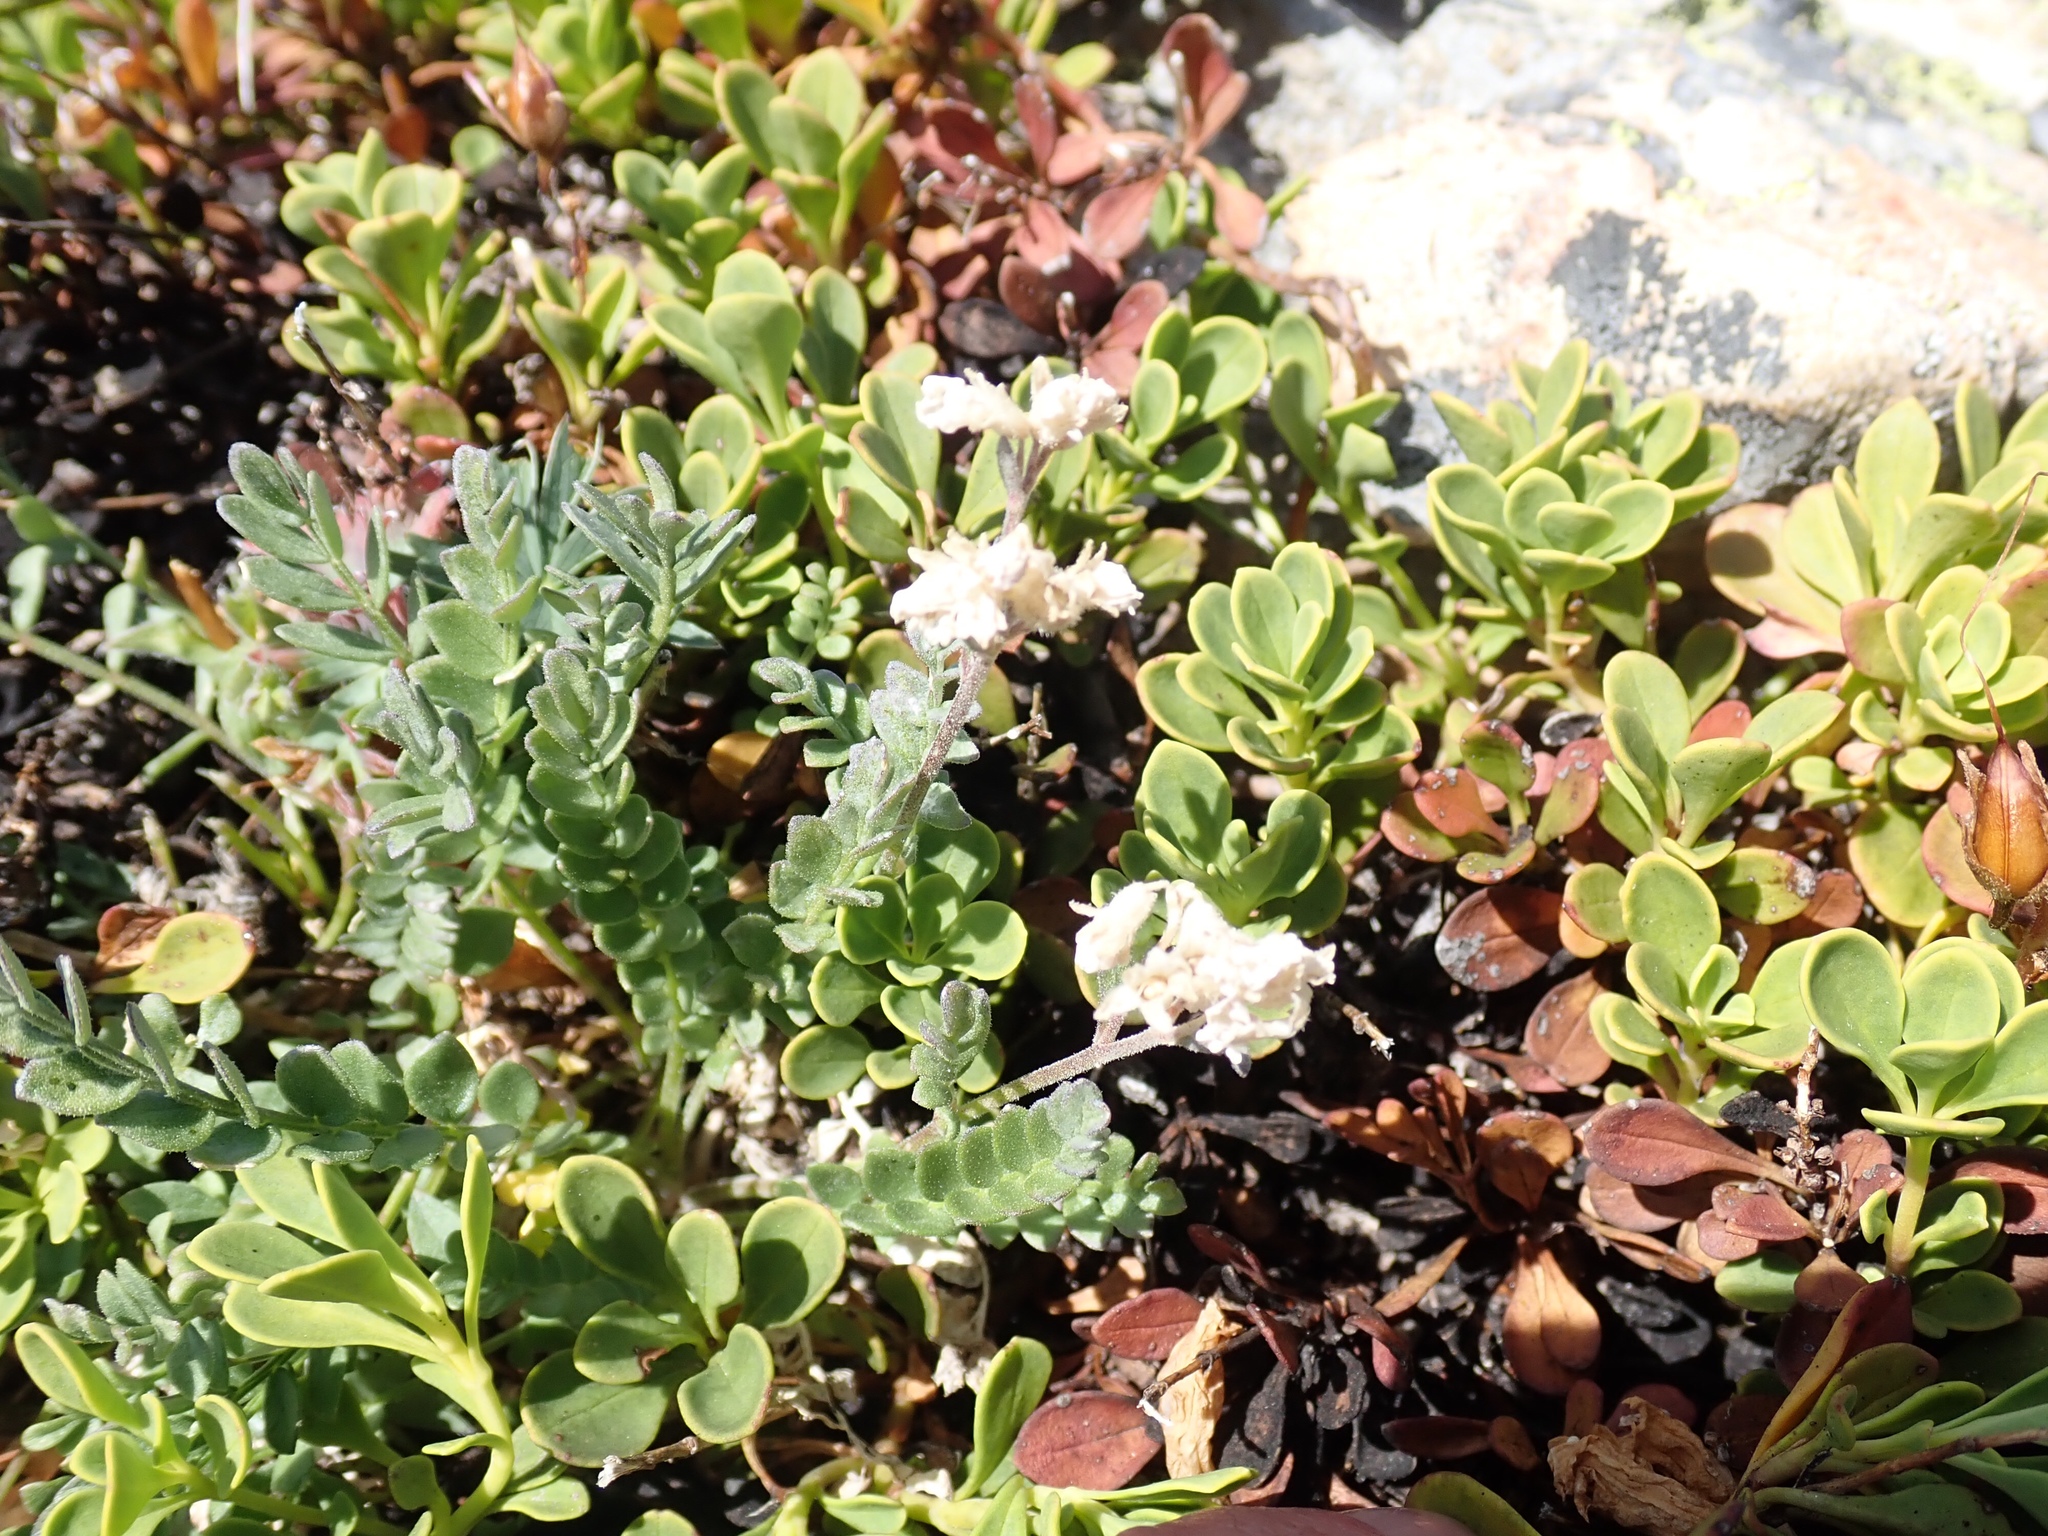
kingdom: Plantae
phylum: Tracheophyta
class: Magnoliopsida
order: Ericales
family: Polemoniaceae
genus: Polemonium
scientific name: Polemonium pulcherrimum
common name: Short jacob's-ladder
